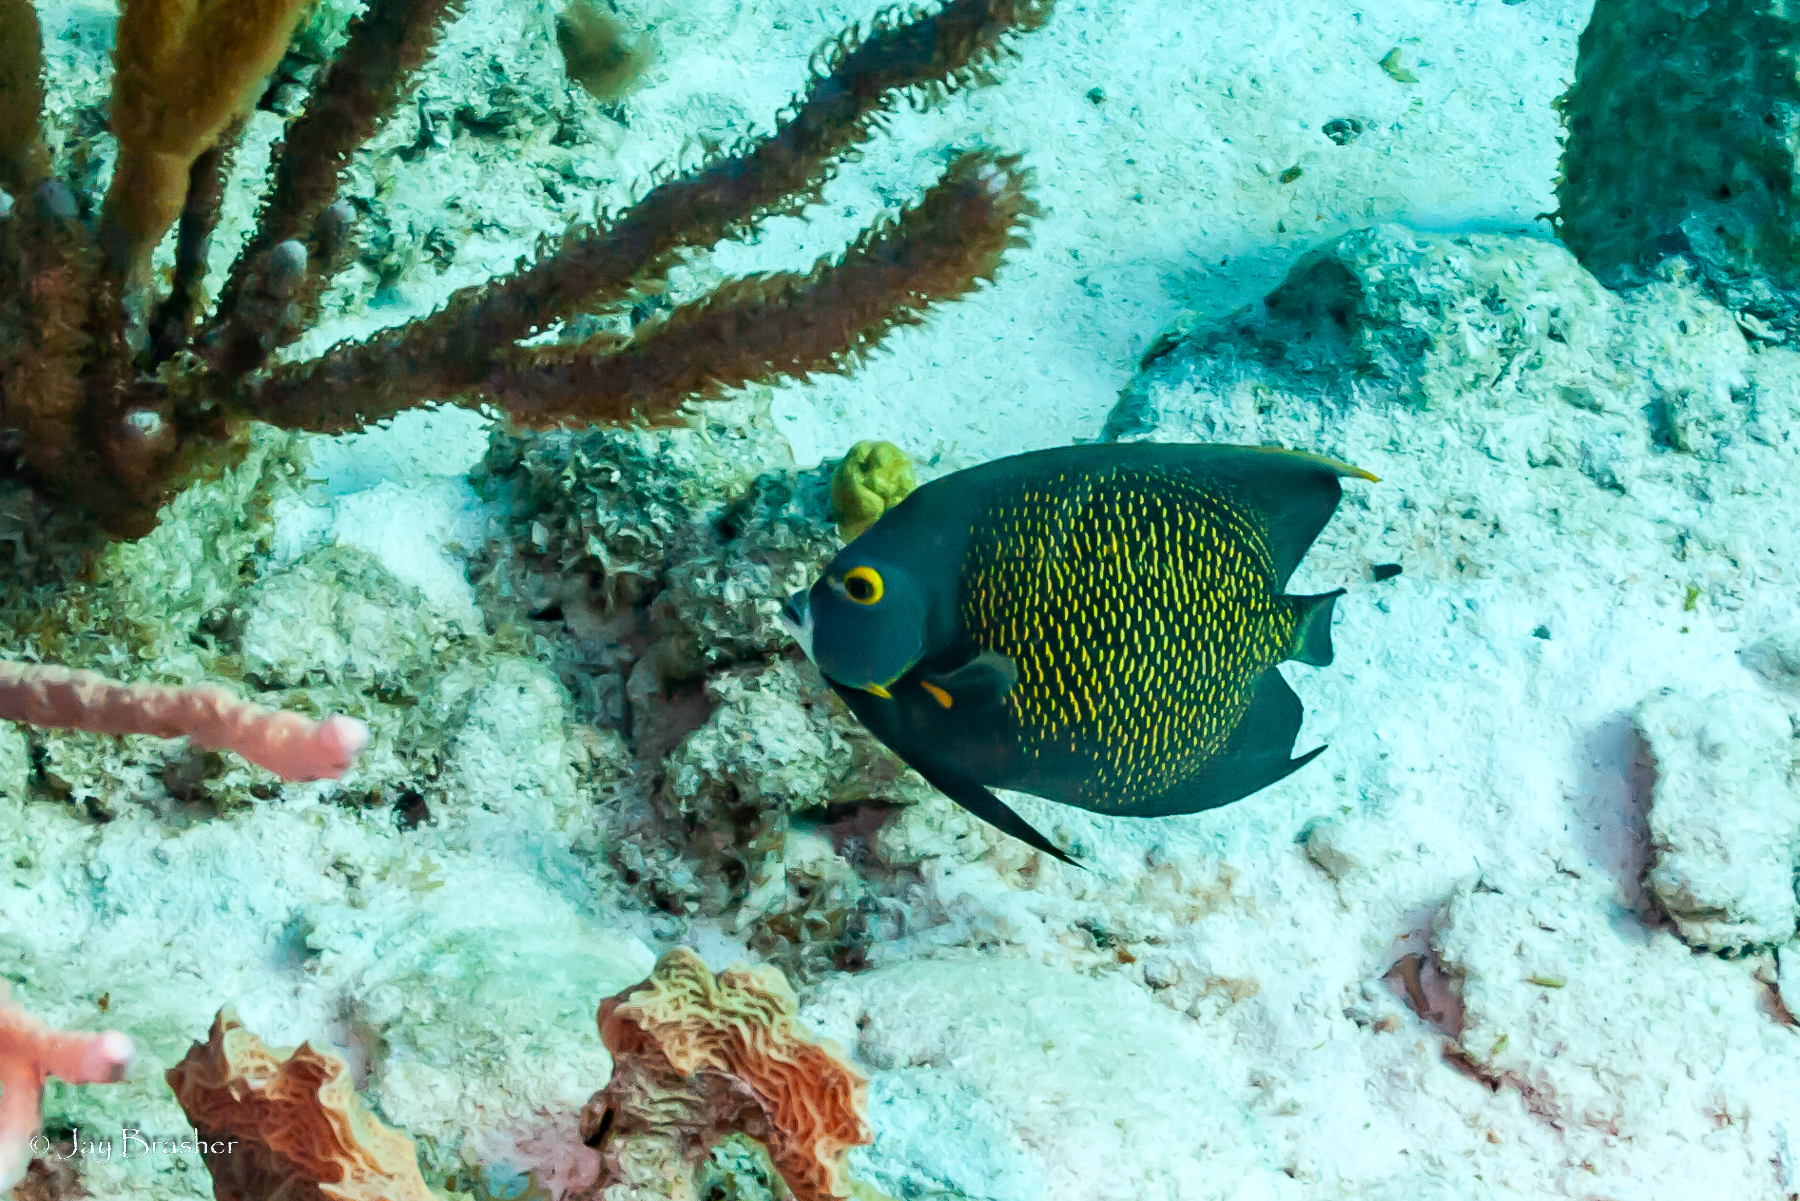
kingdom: Animalia
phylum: Chordata
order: Perciformes
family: Pomacanthidae
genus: Pomacanthus
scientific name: Pomacanthus paru
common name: French angelfish
